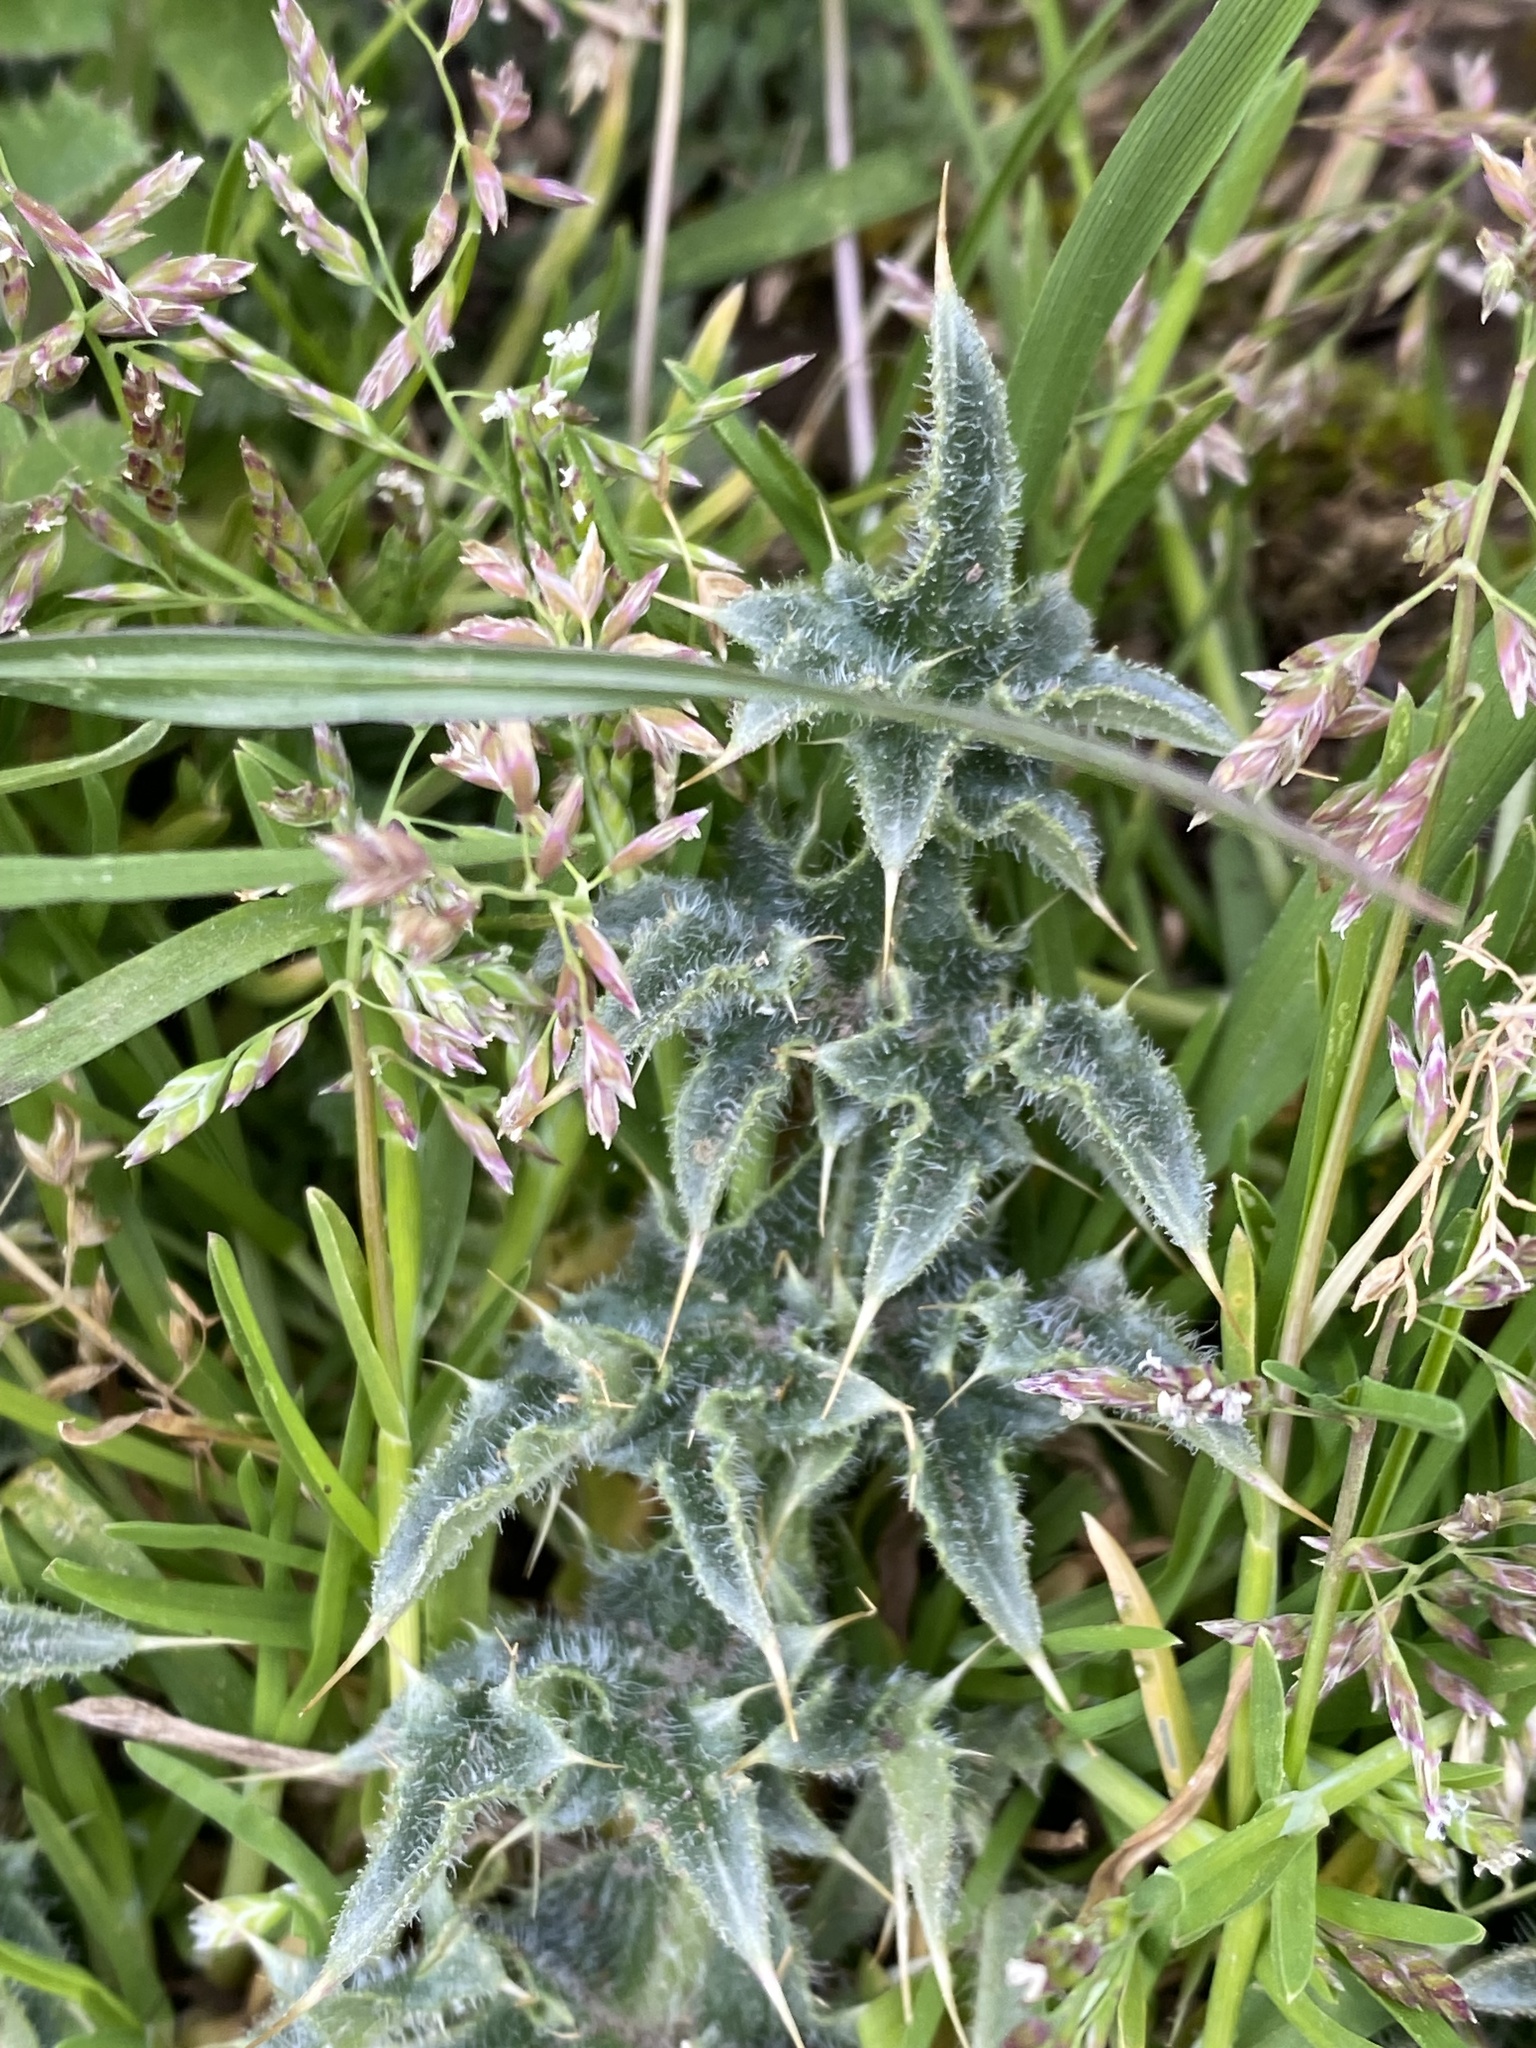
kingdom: Plantae
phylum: Tracheophyta
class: Magnoliopsida
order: Asterales
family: Asteraceae
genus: Cirsium
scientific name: Cirsium vulgare
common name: Bull thistle
